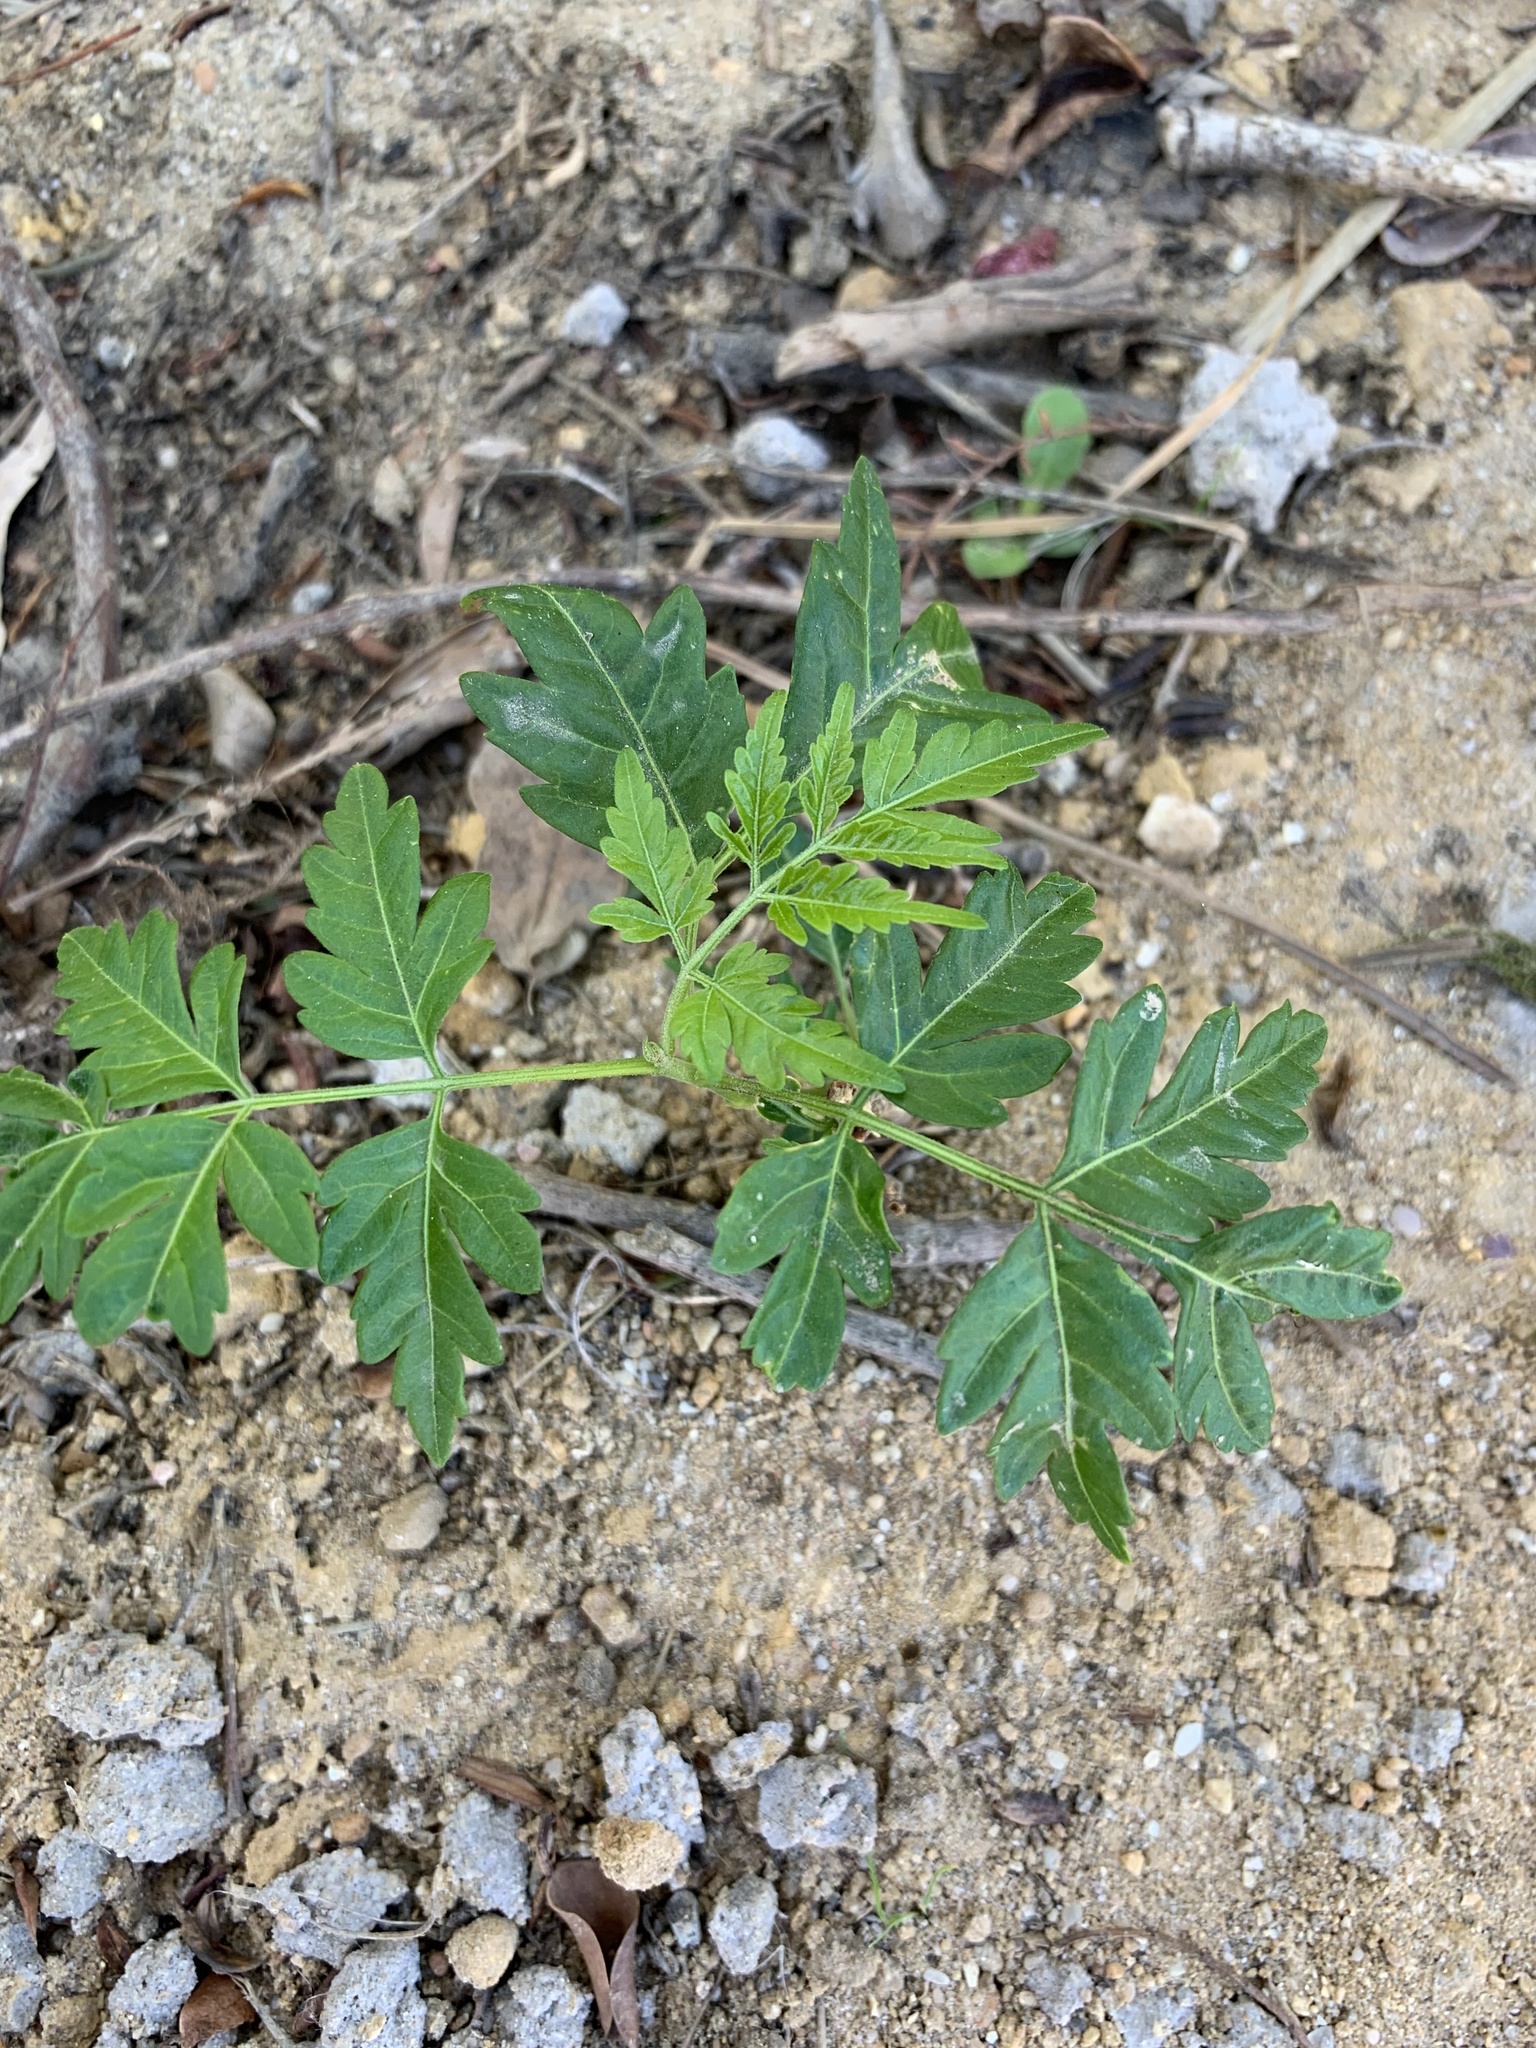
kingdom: Plantae
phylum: Tracheophyta
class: Magnoliopsida
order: Sapindales
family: Meliaceae
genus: Melia
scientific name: Melia azedarach
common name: Chinaberrytree
